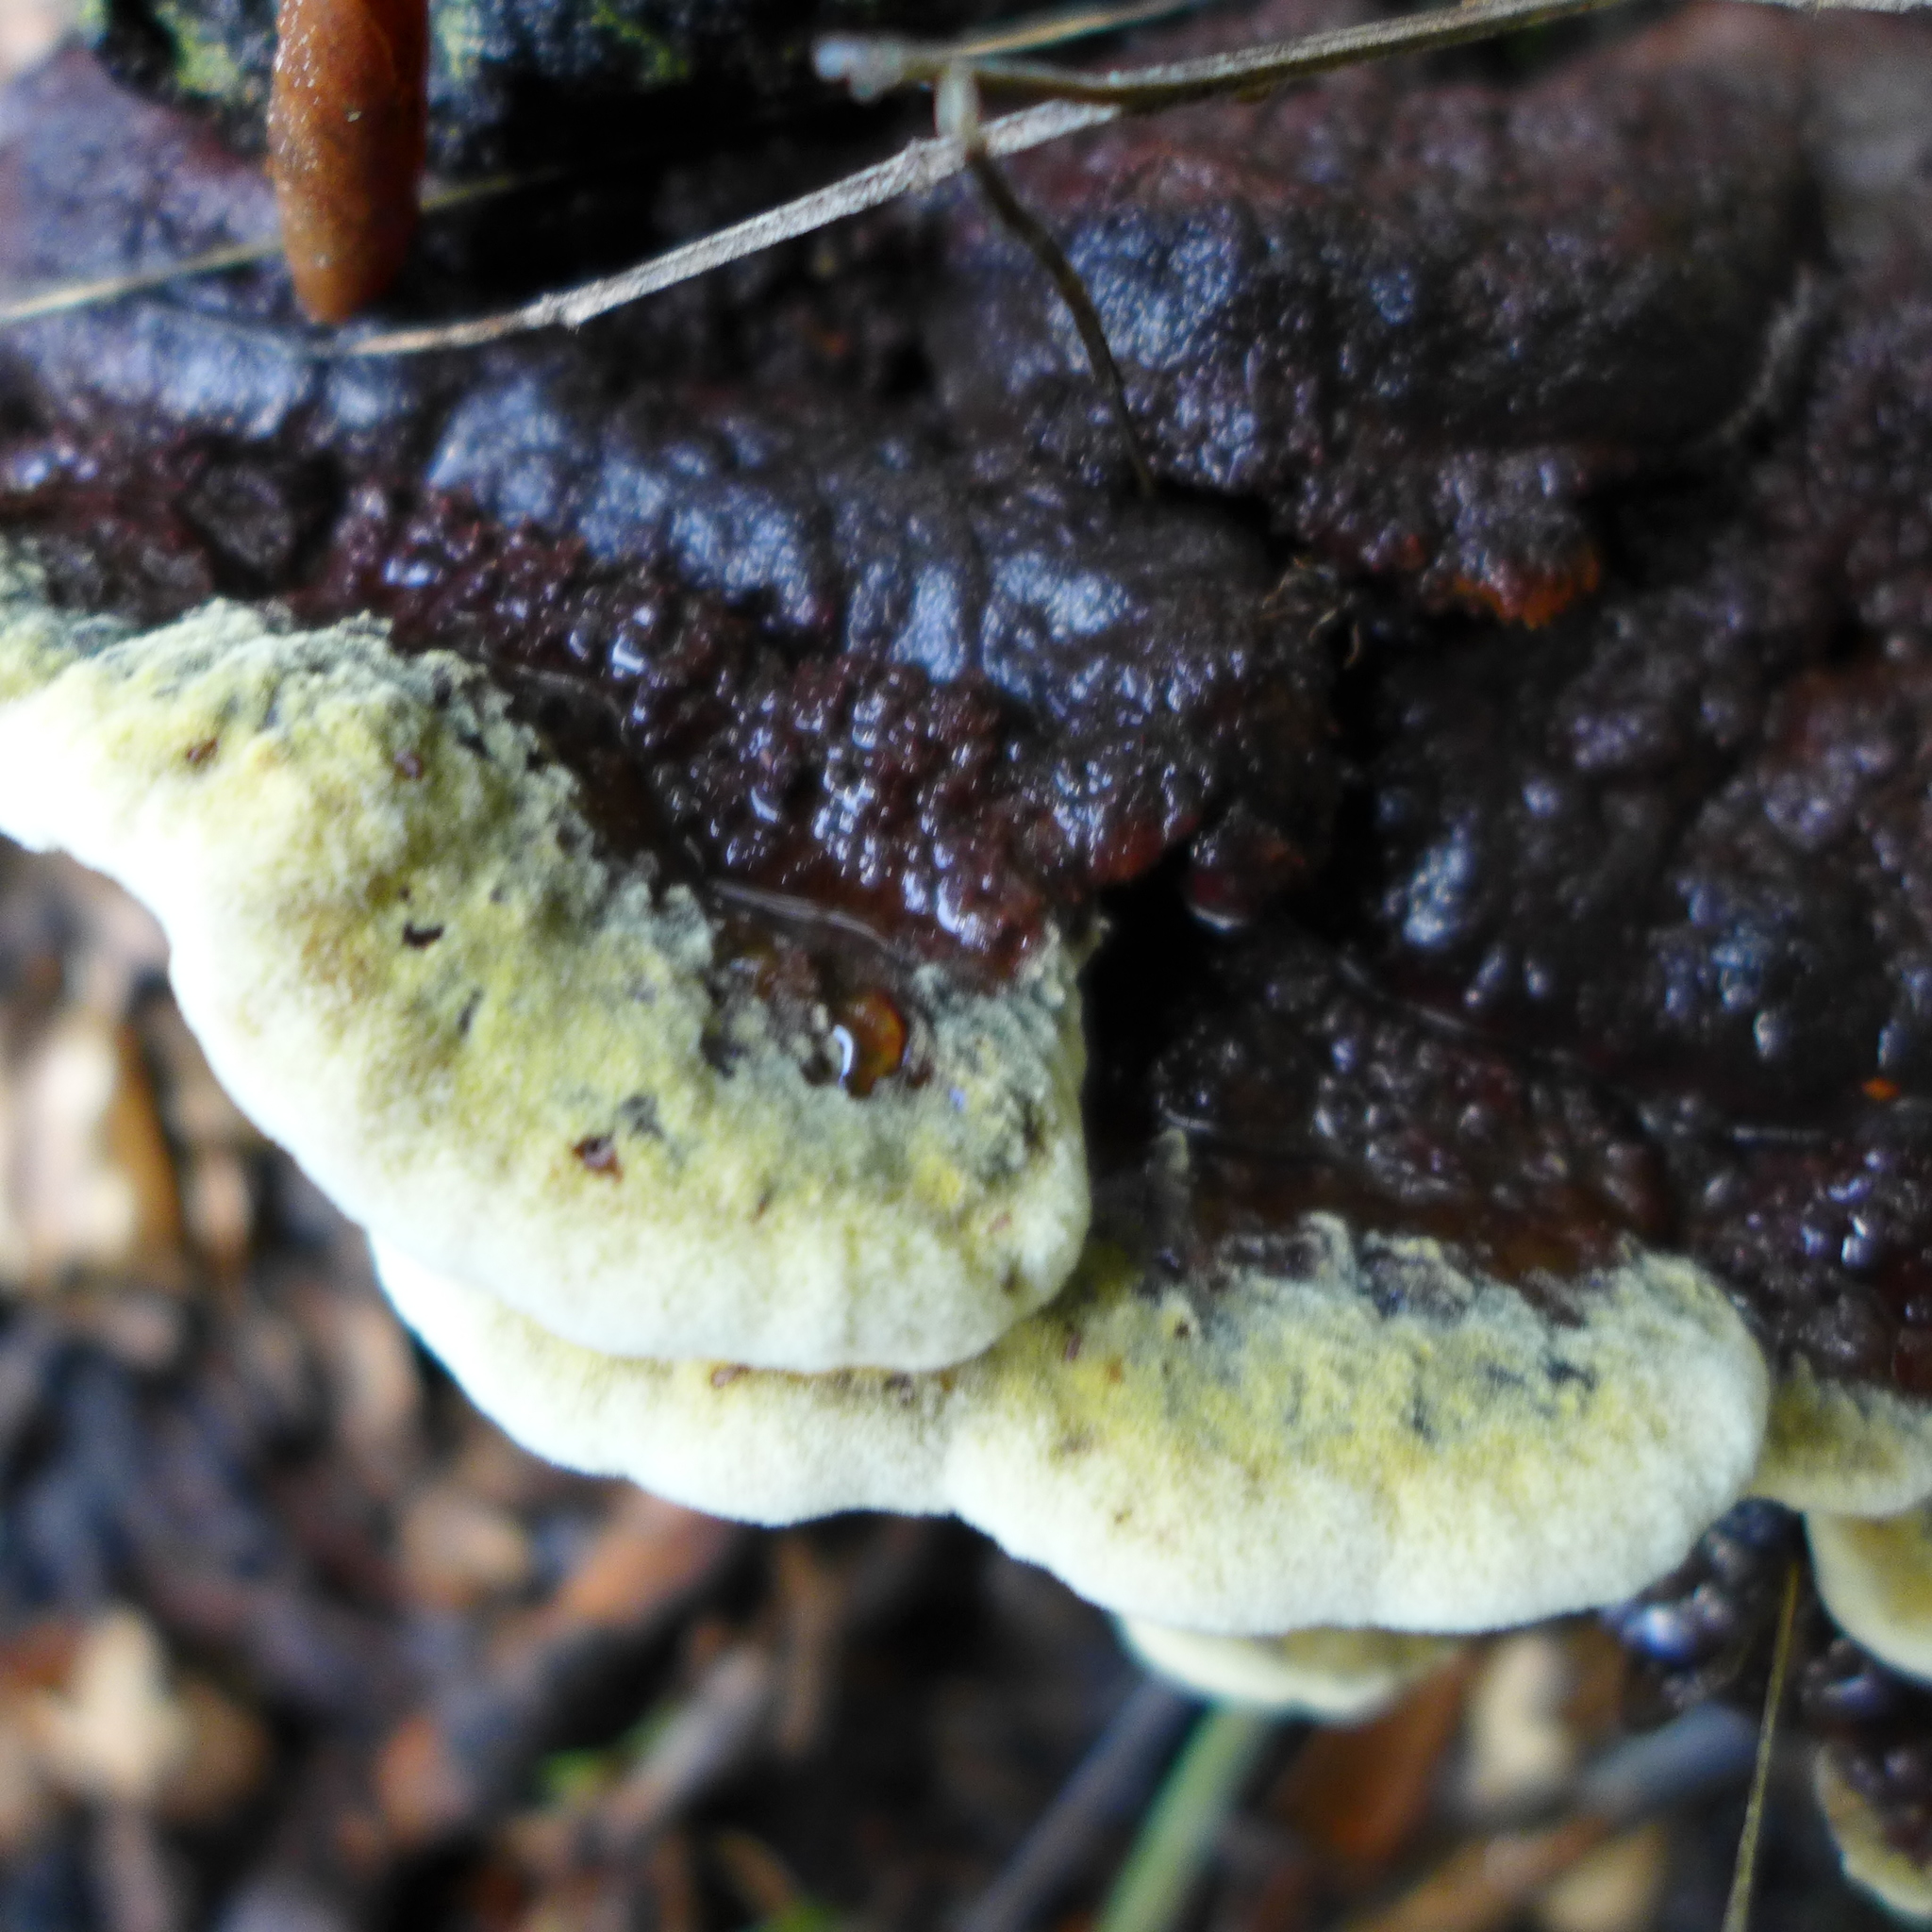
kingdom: Fungi
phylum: Basidiomycota
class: Agaricomycetes
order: Polyporales
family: Laetiporaceae
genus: Phaeolus
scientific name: Phaeolus schweinitzii
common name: Dyer's mazegill
